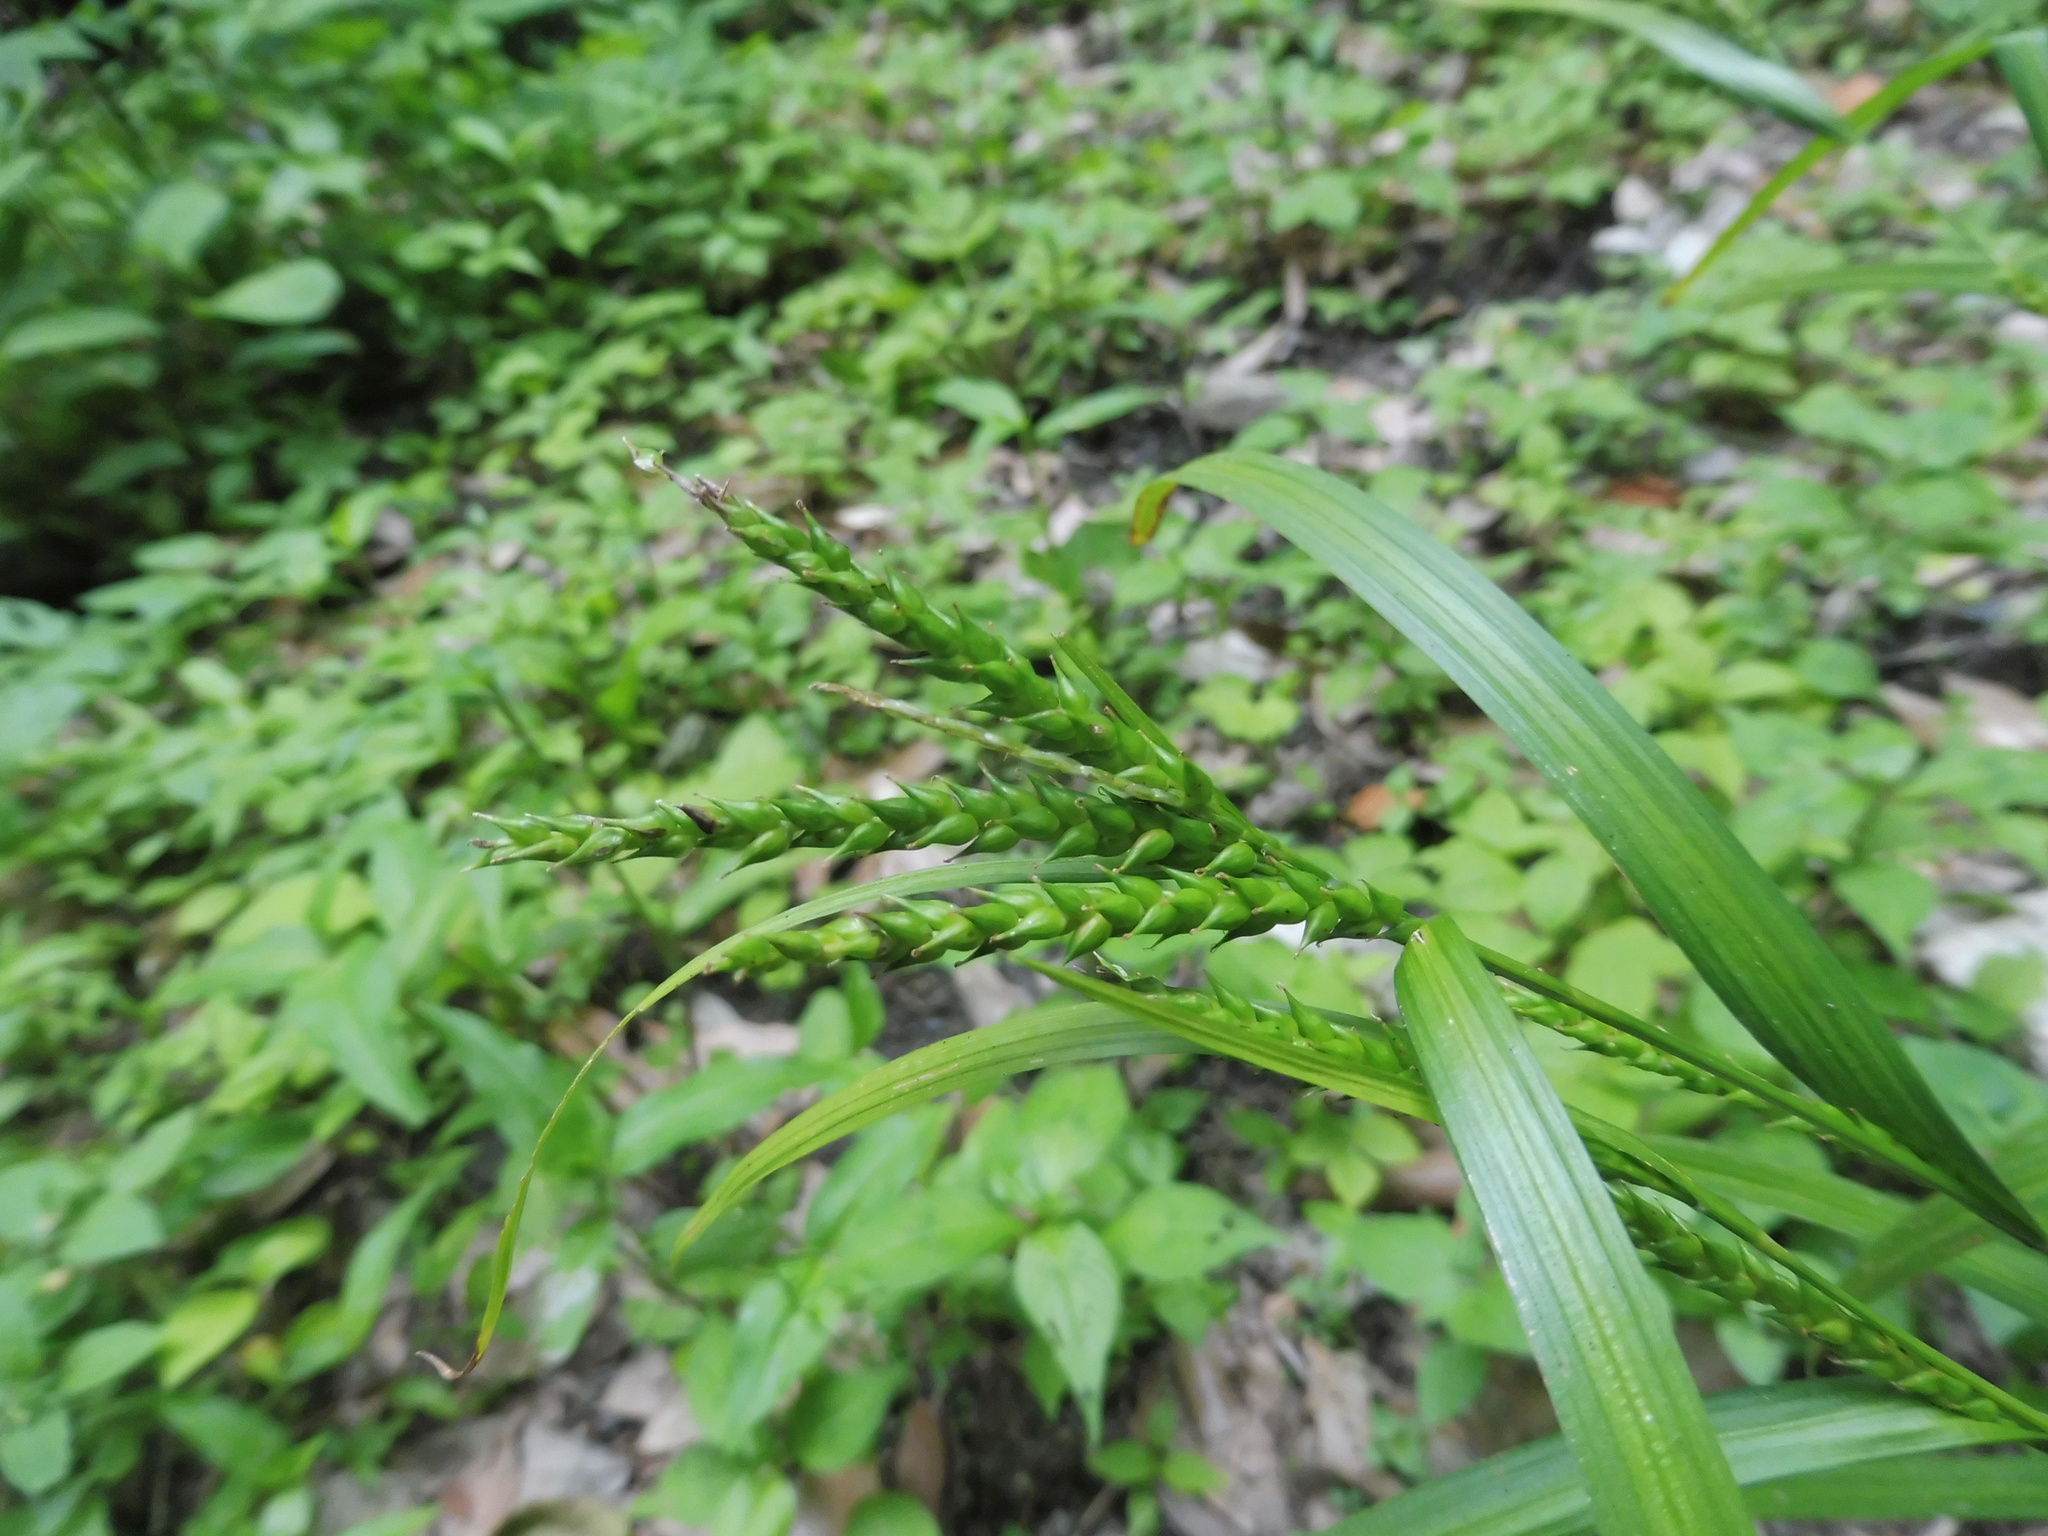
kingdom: Plantae
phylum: Tracheophyta
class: Liliopsida
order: Poales
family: Cyperaceae
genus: Carex
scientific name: Carex ischnostachya
